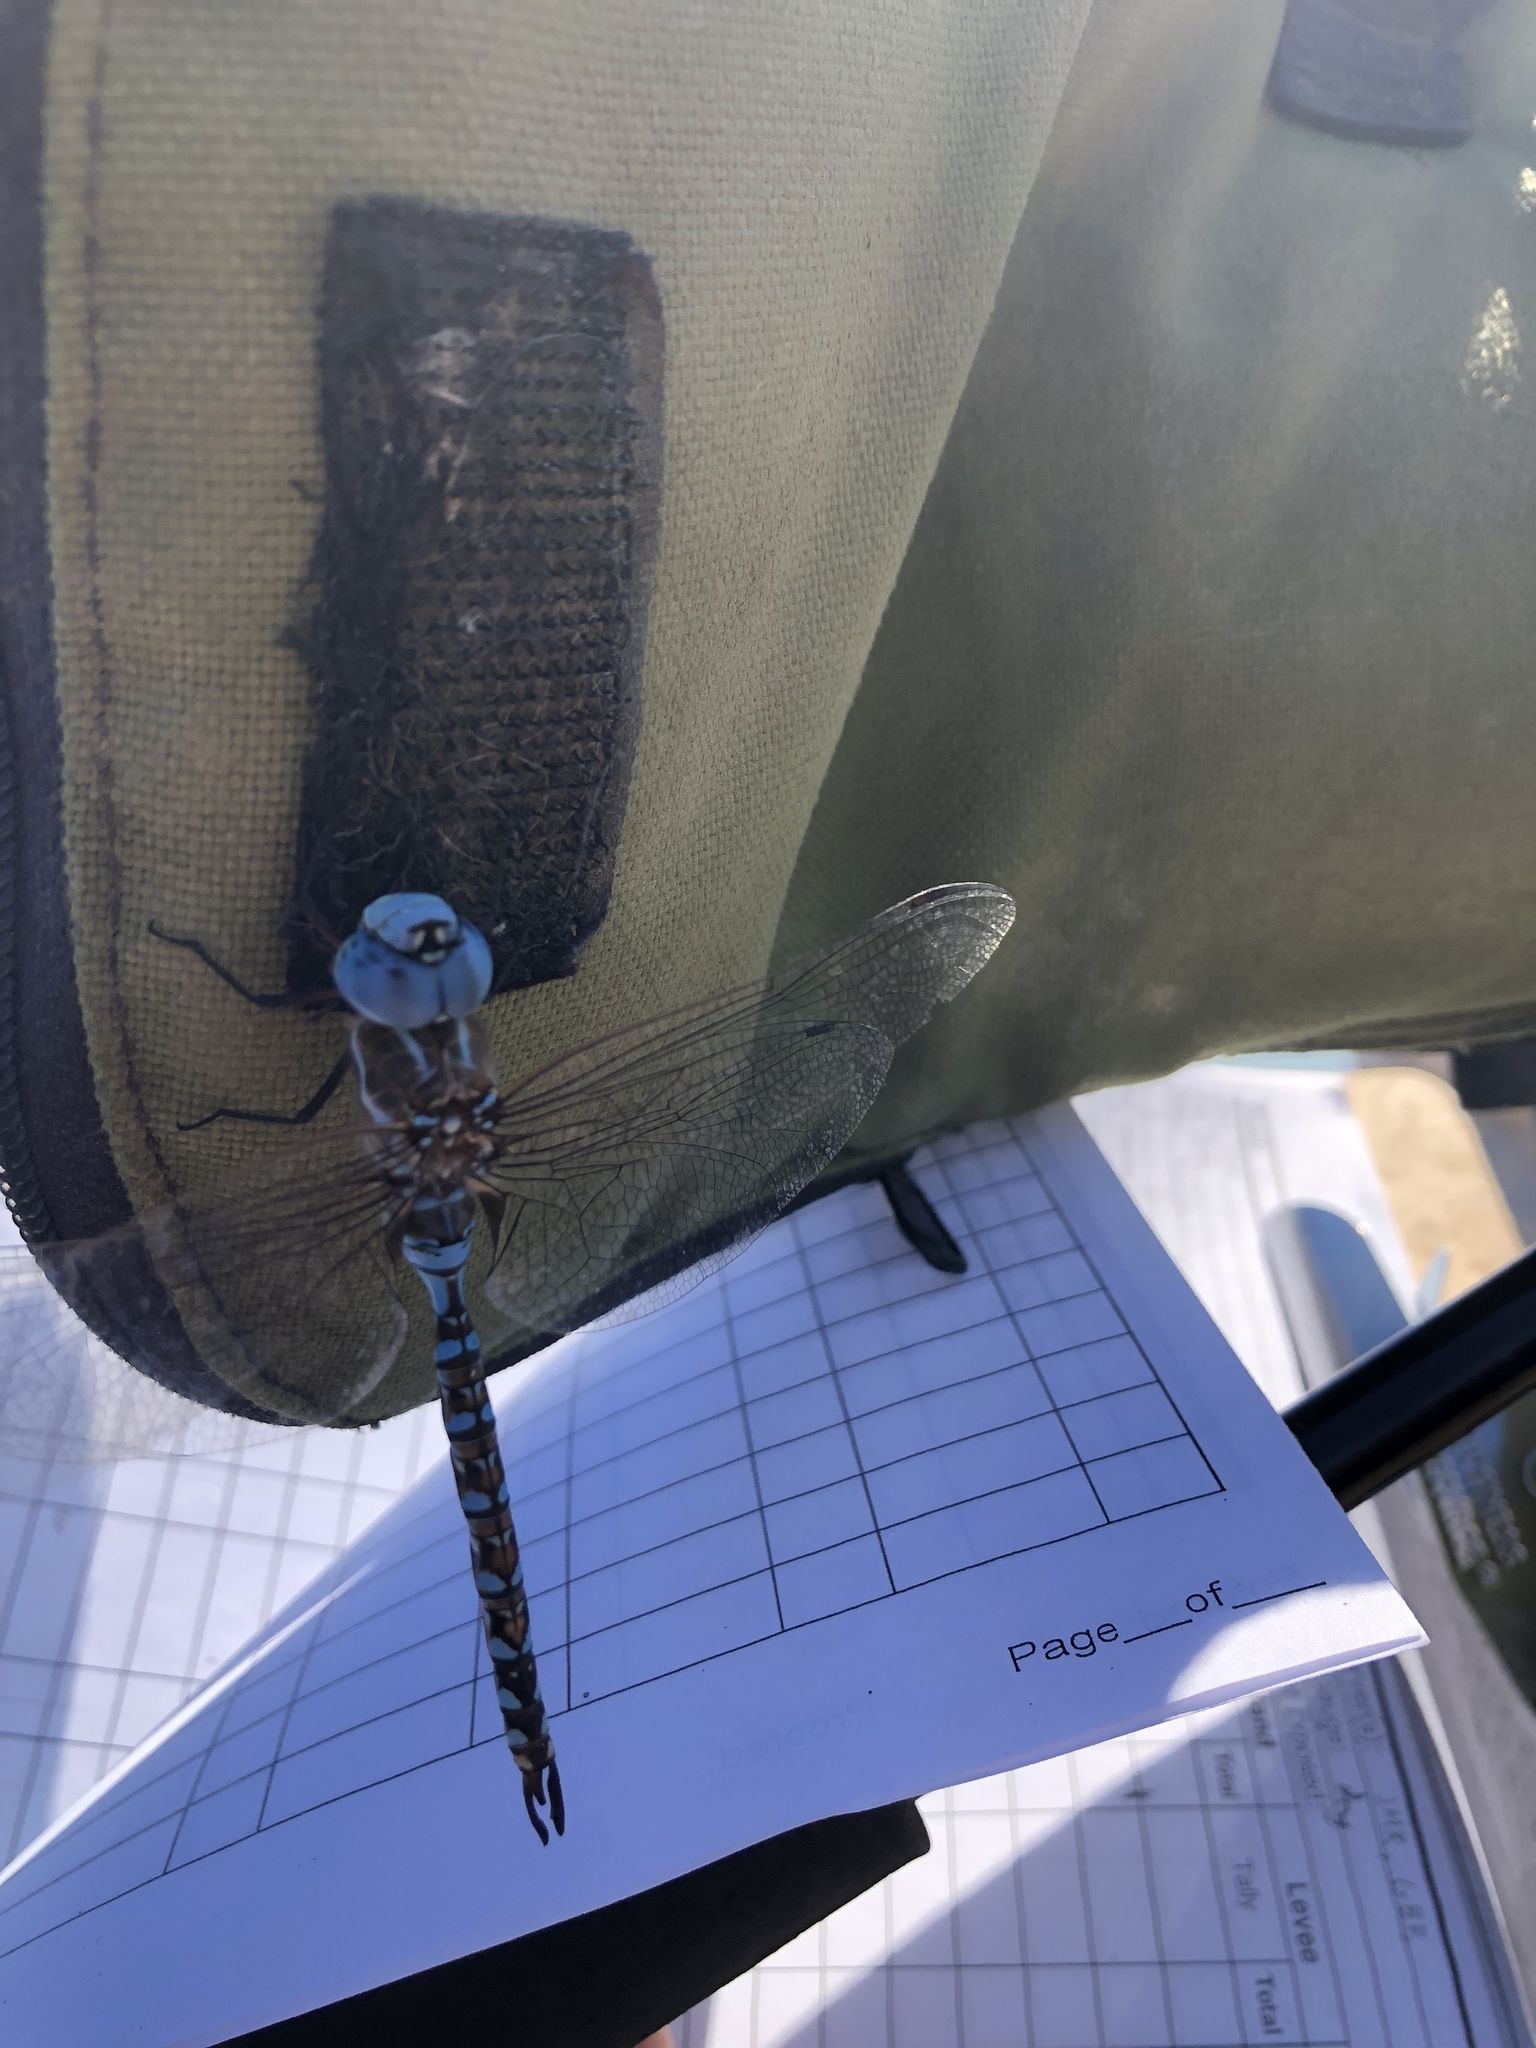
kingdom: Animalia
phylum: Arthropoda
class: Insecta
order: Odonata
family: Aeshnidae
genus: Rhionaeschna
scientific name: Rhionaeschna multicolor
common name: Blue-eyed darner
